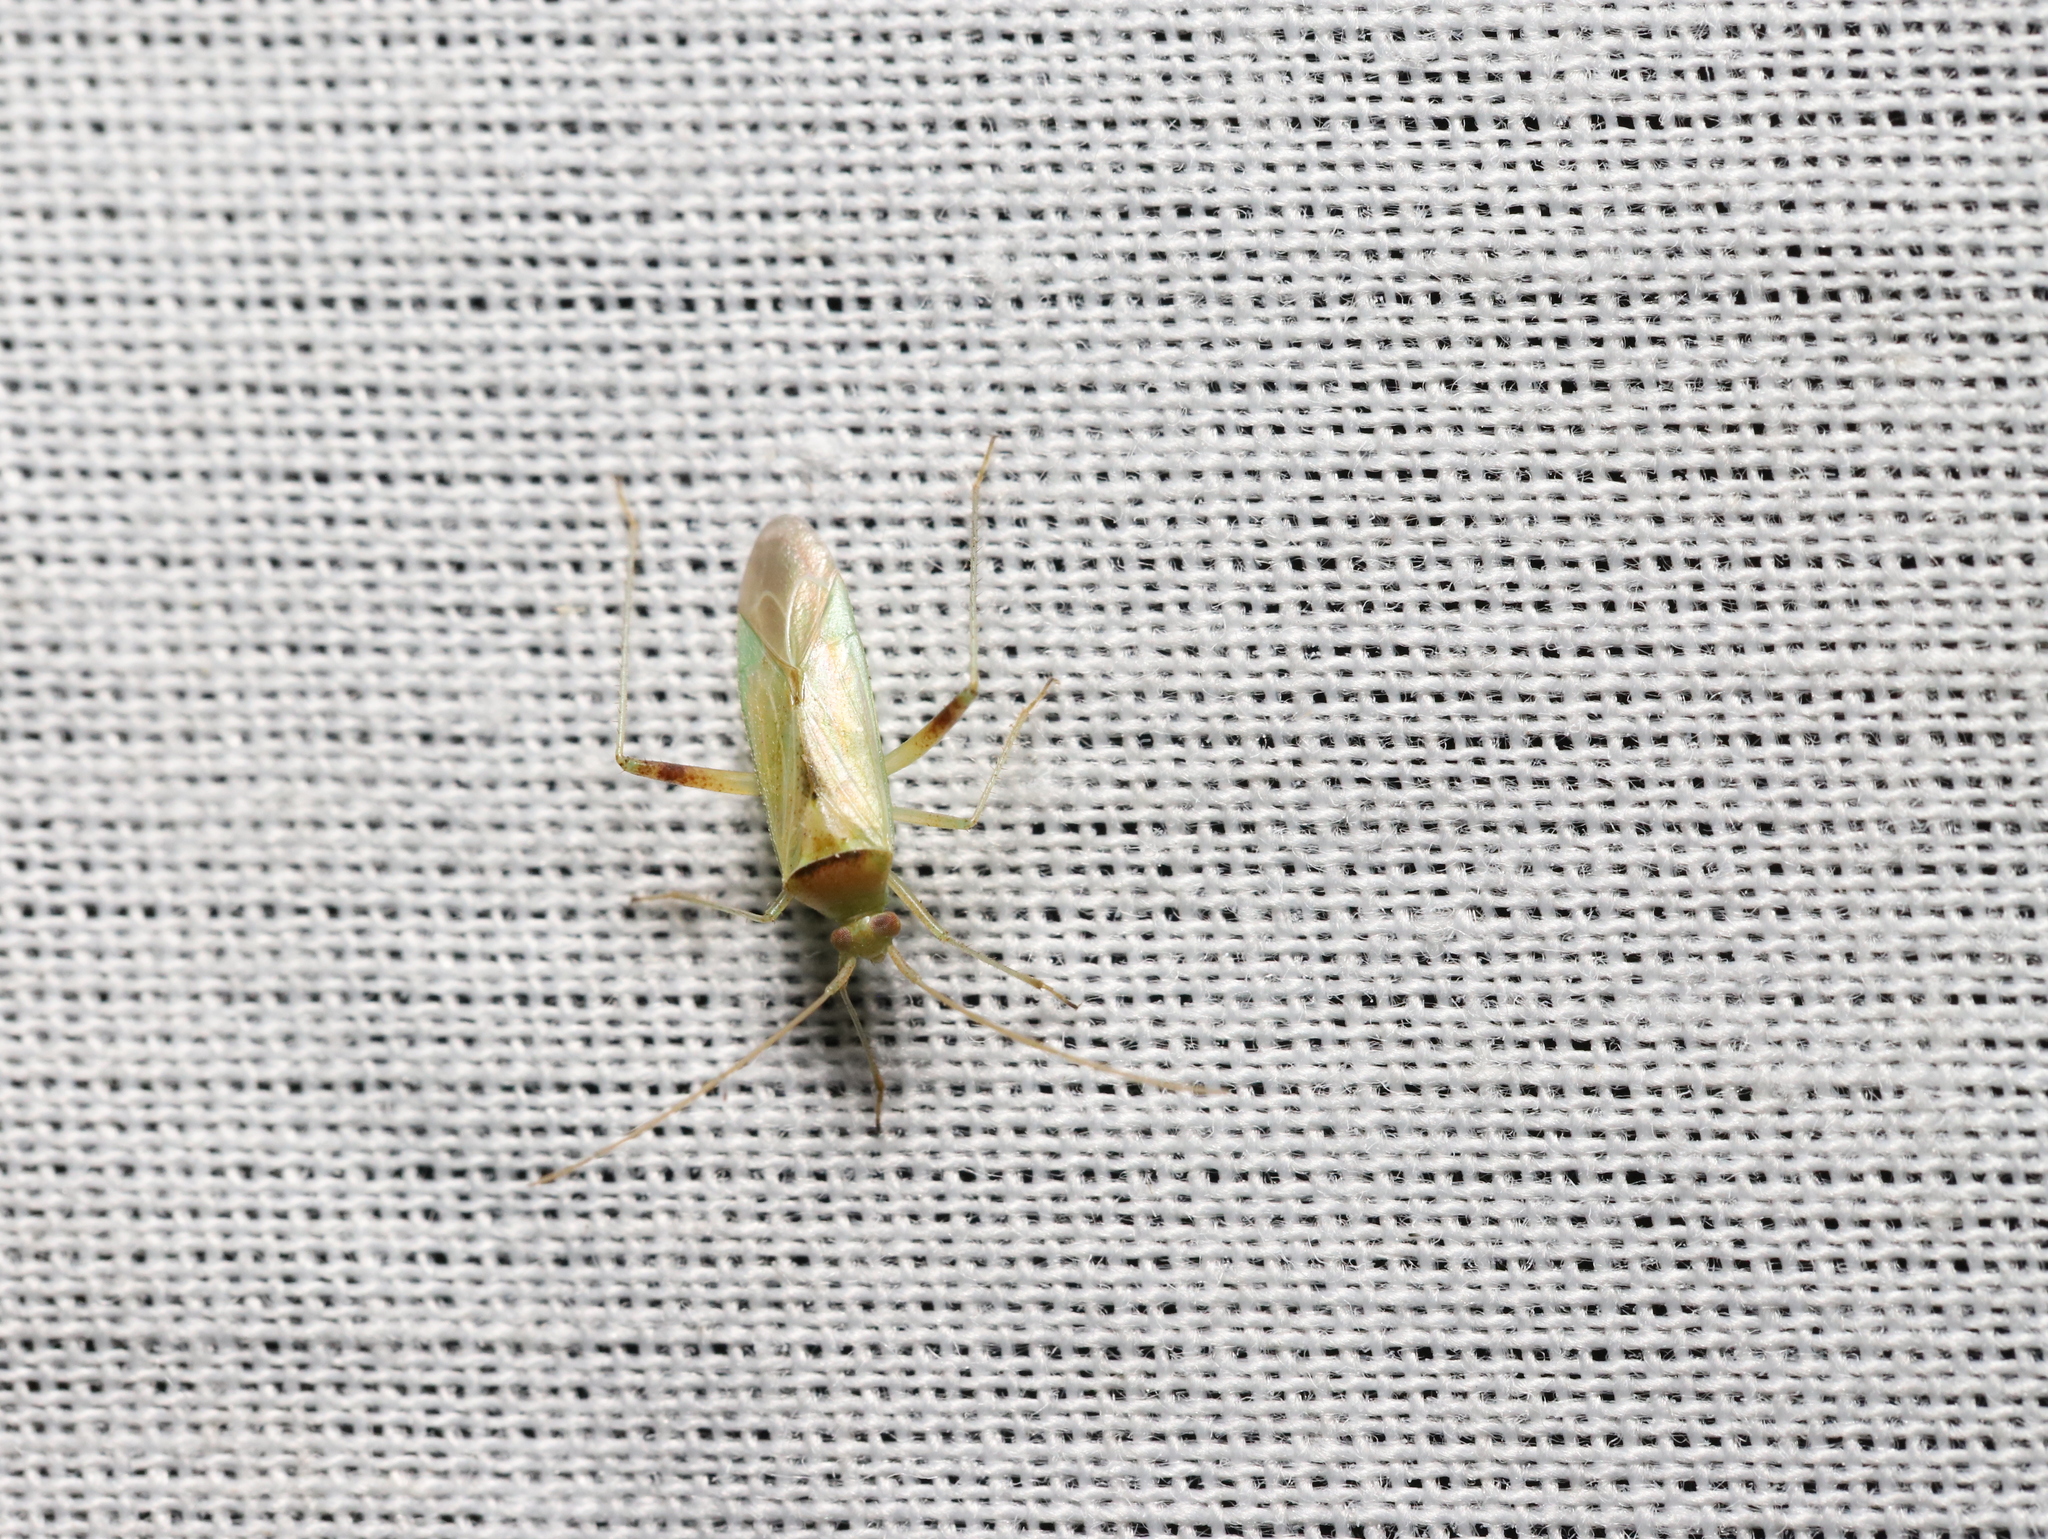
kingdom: Animalia
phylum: Arthropoda
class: Insecta
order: Hemiptera
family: Miridae
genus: Creontiades
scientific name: Creontiades dilutus
